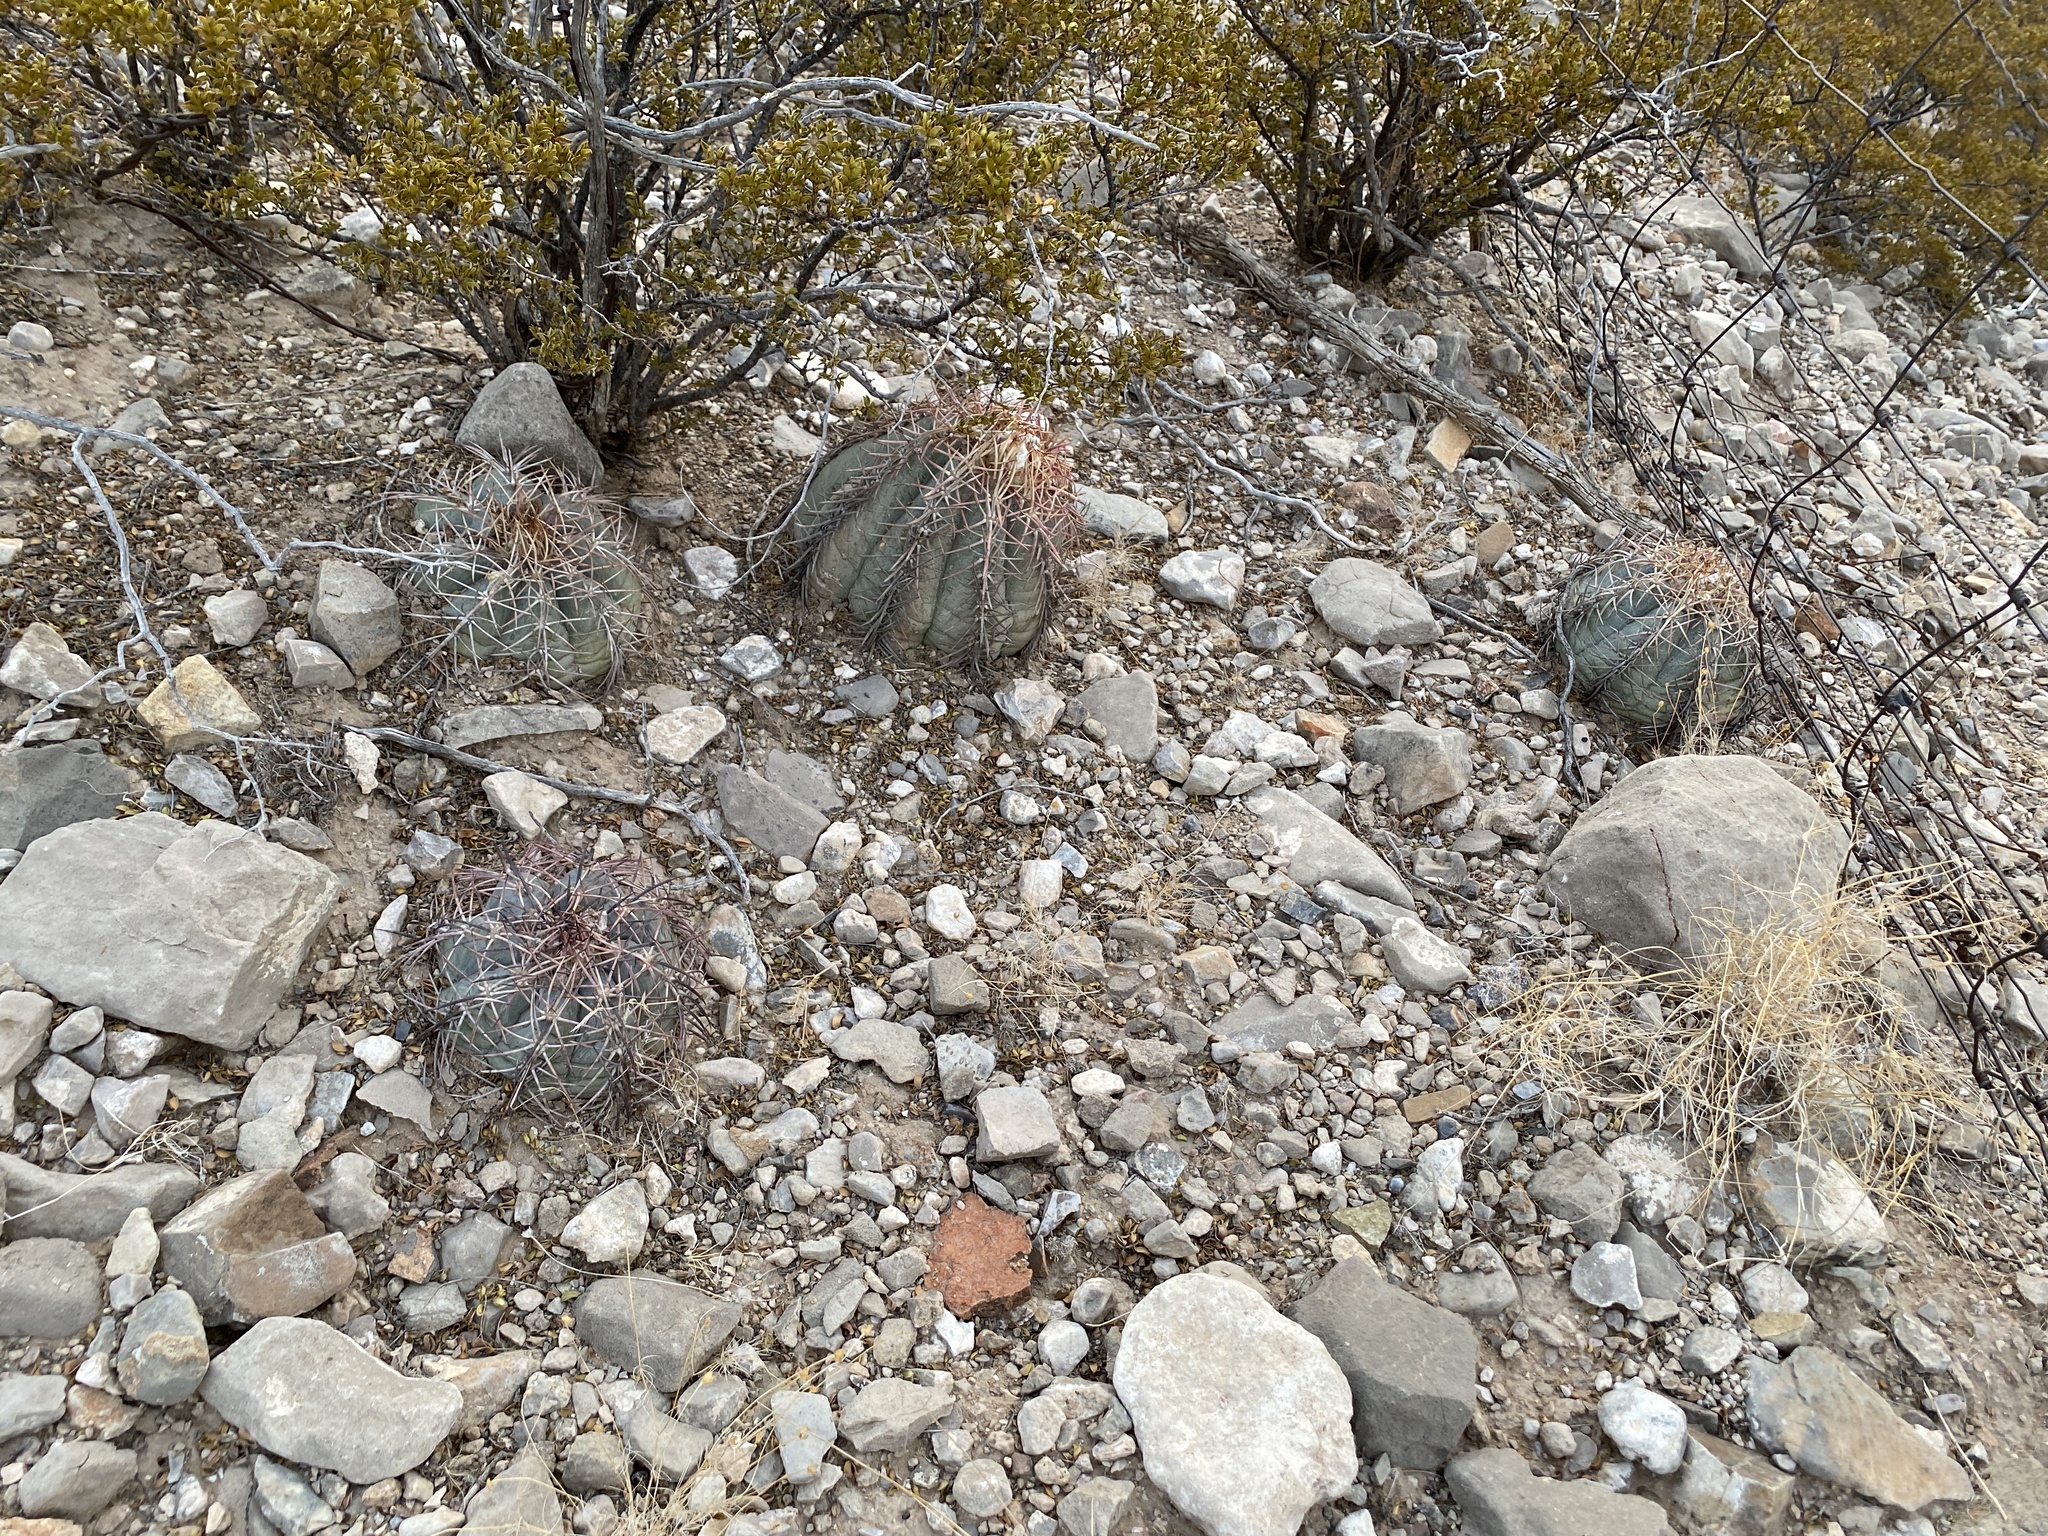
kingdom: Plantae
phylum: Tracheophyta
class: Magnoliopsida
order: Caryophyllales
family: Cactaceae
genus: Echinocactus
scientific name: Echinocactus horizonthalonius
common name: Devilshead
